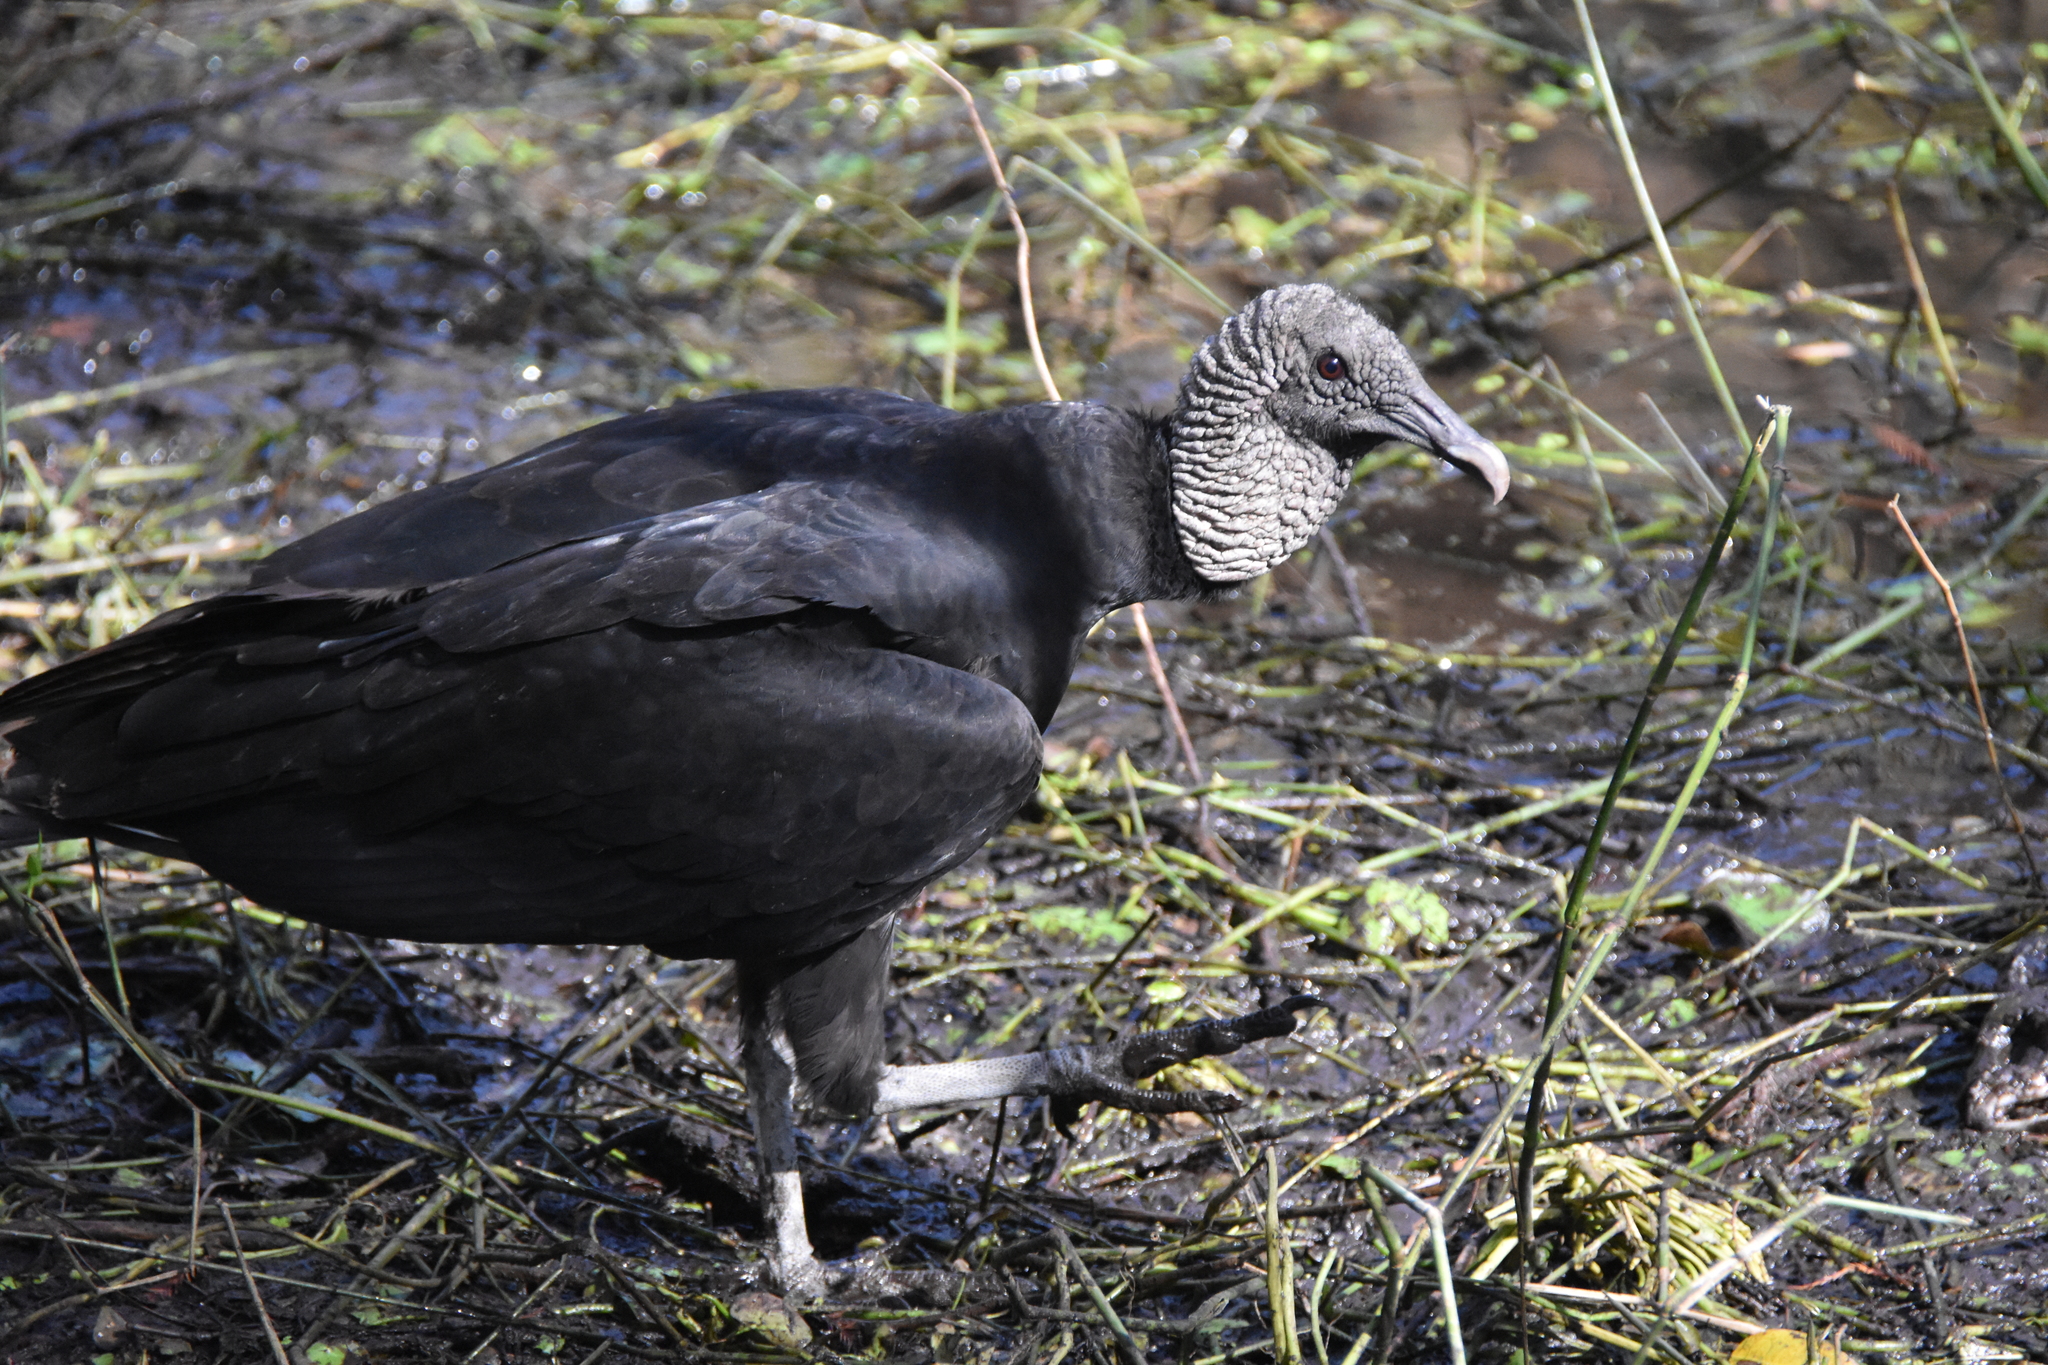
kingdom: Animalia
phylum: Chordata
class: Aves
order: Accipitriformes
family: Cathartidae
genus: Coragyps
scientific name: Coragyps atratus
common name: Black vulture
